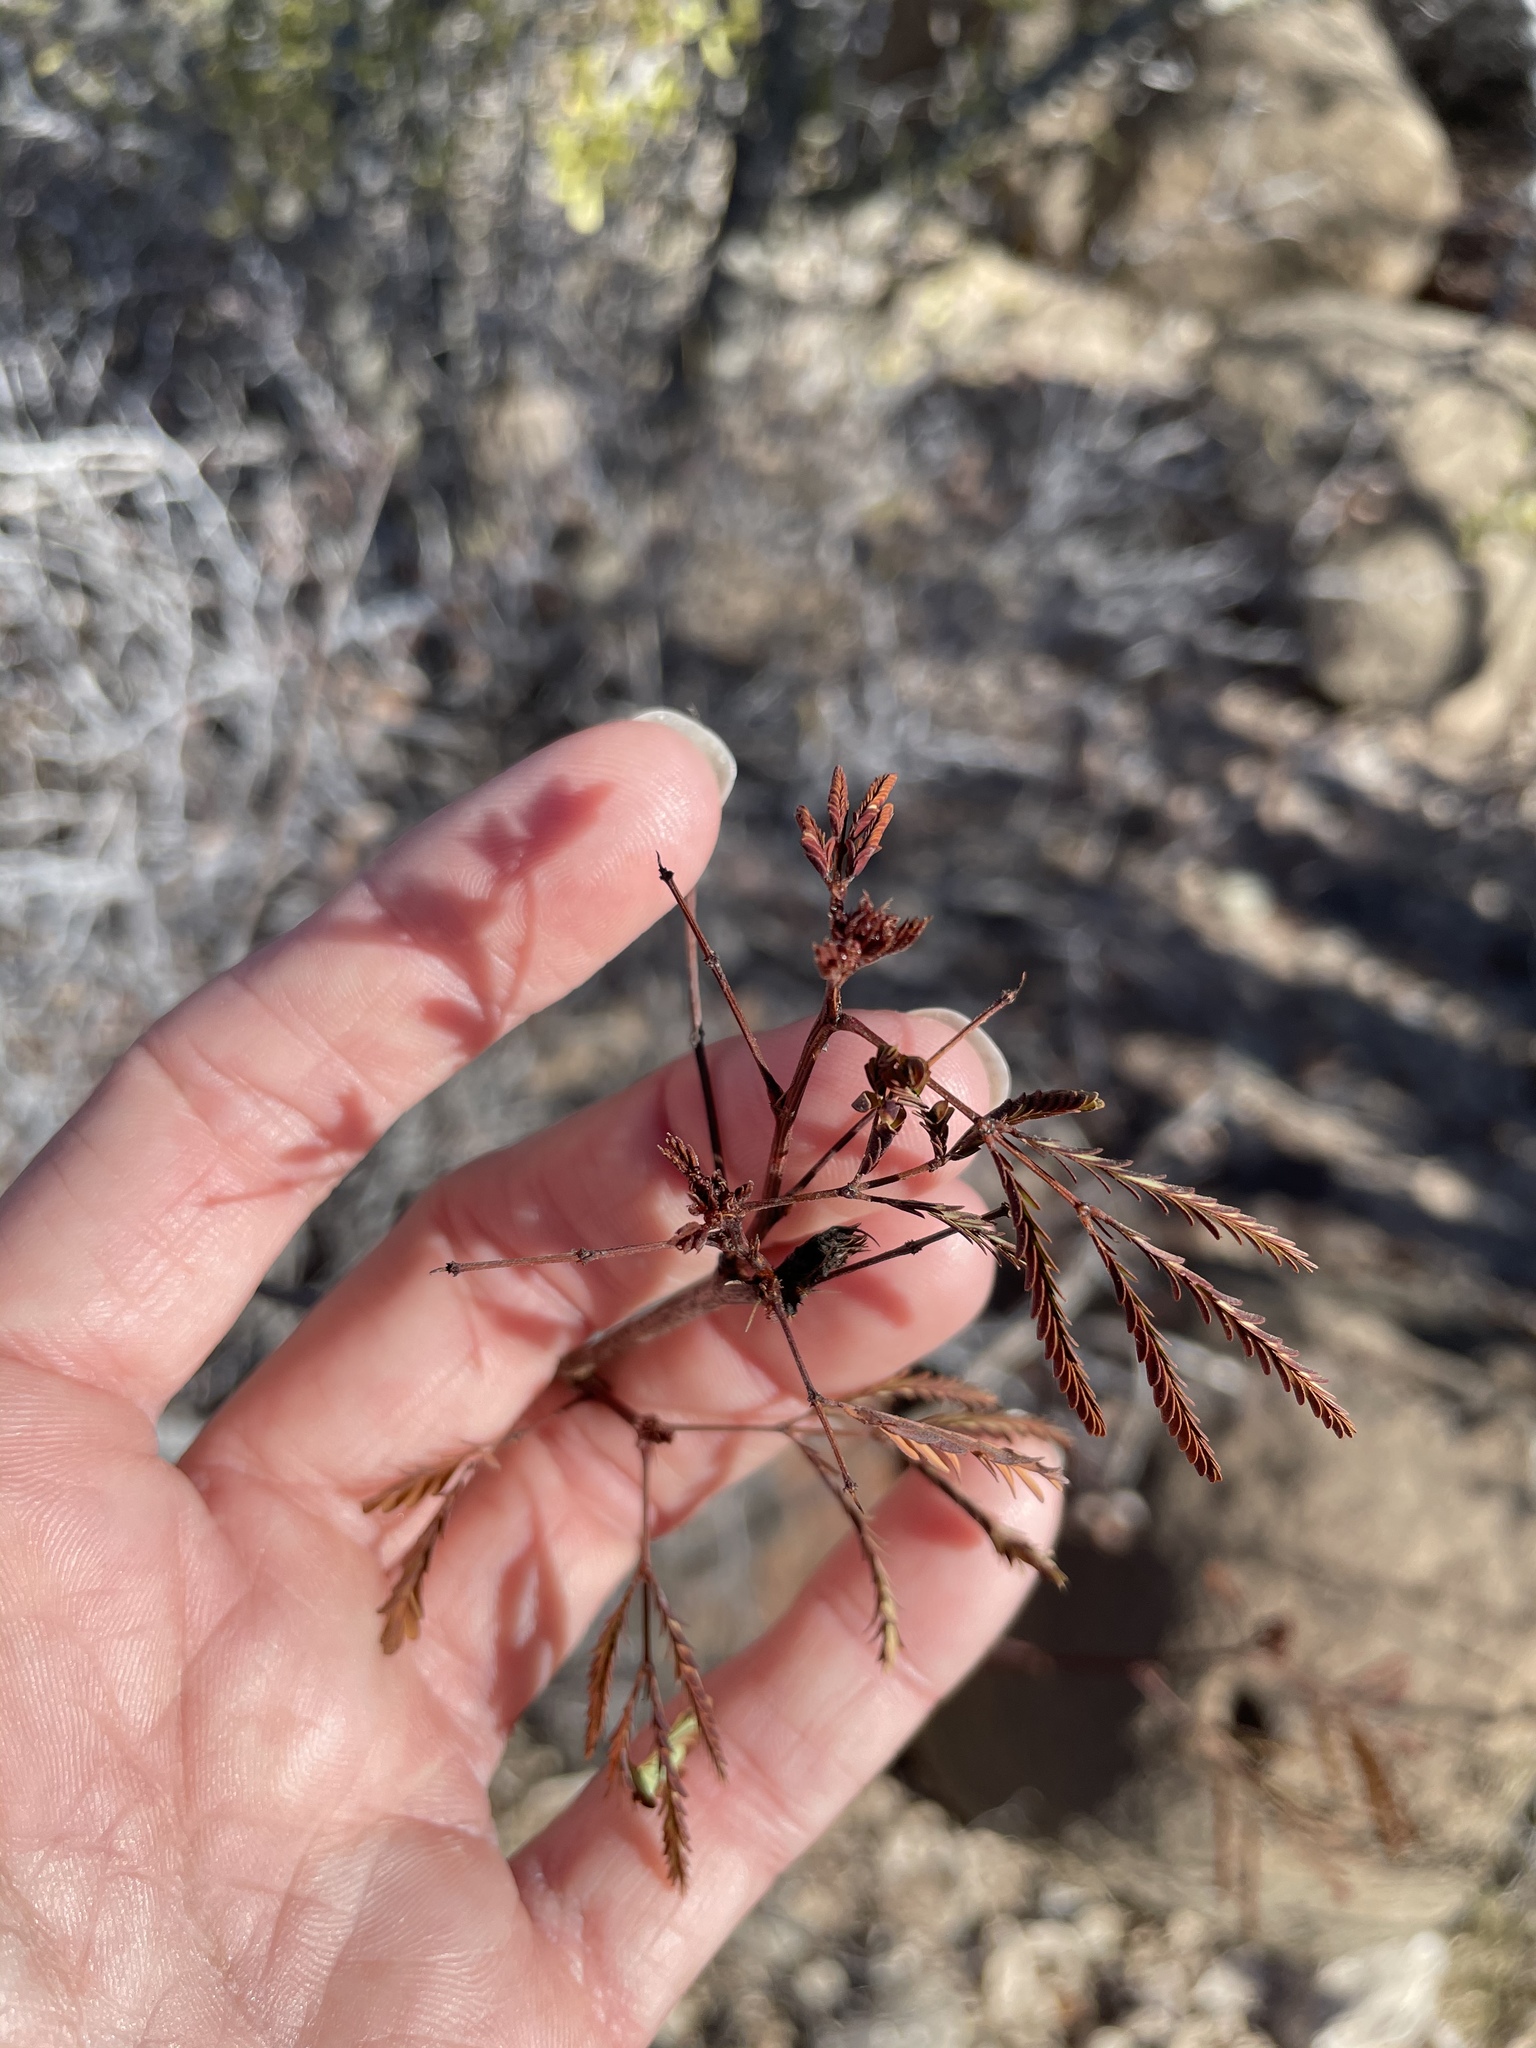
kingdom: Plantae
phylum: Tracheophyta
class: Magnoliopsida
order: Fabales
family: Fabaceae
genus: Desmanthus
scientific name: Desmanthus fruticosus
